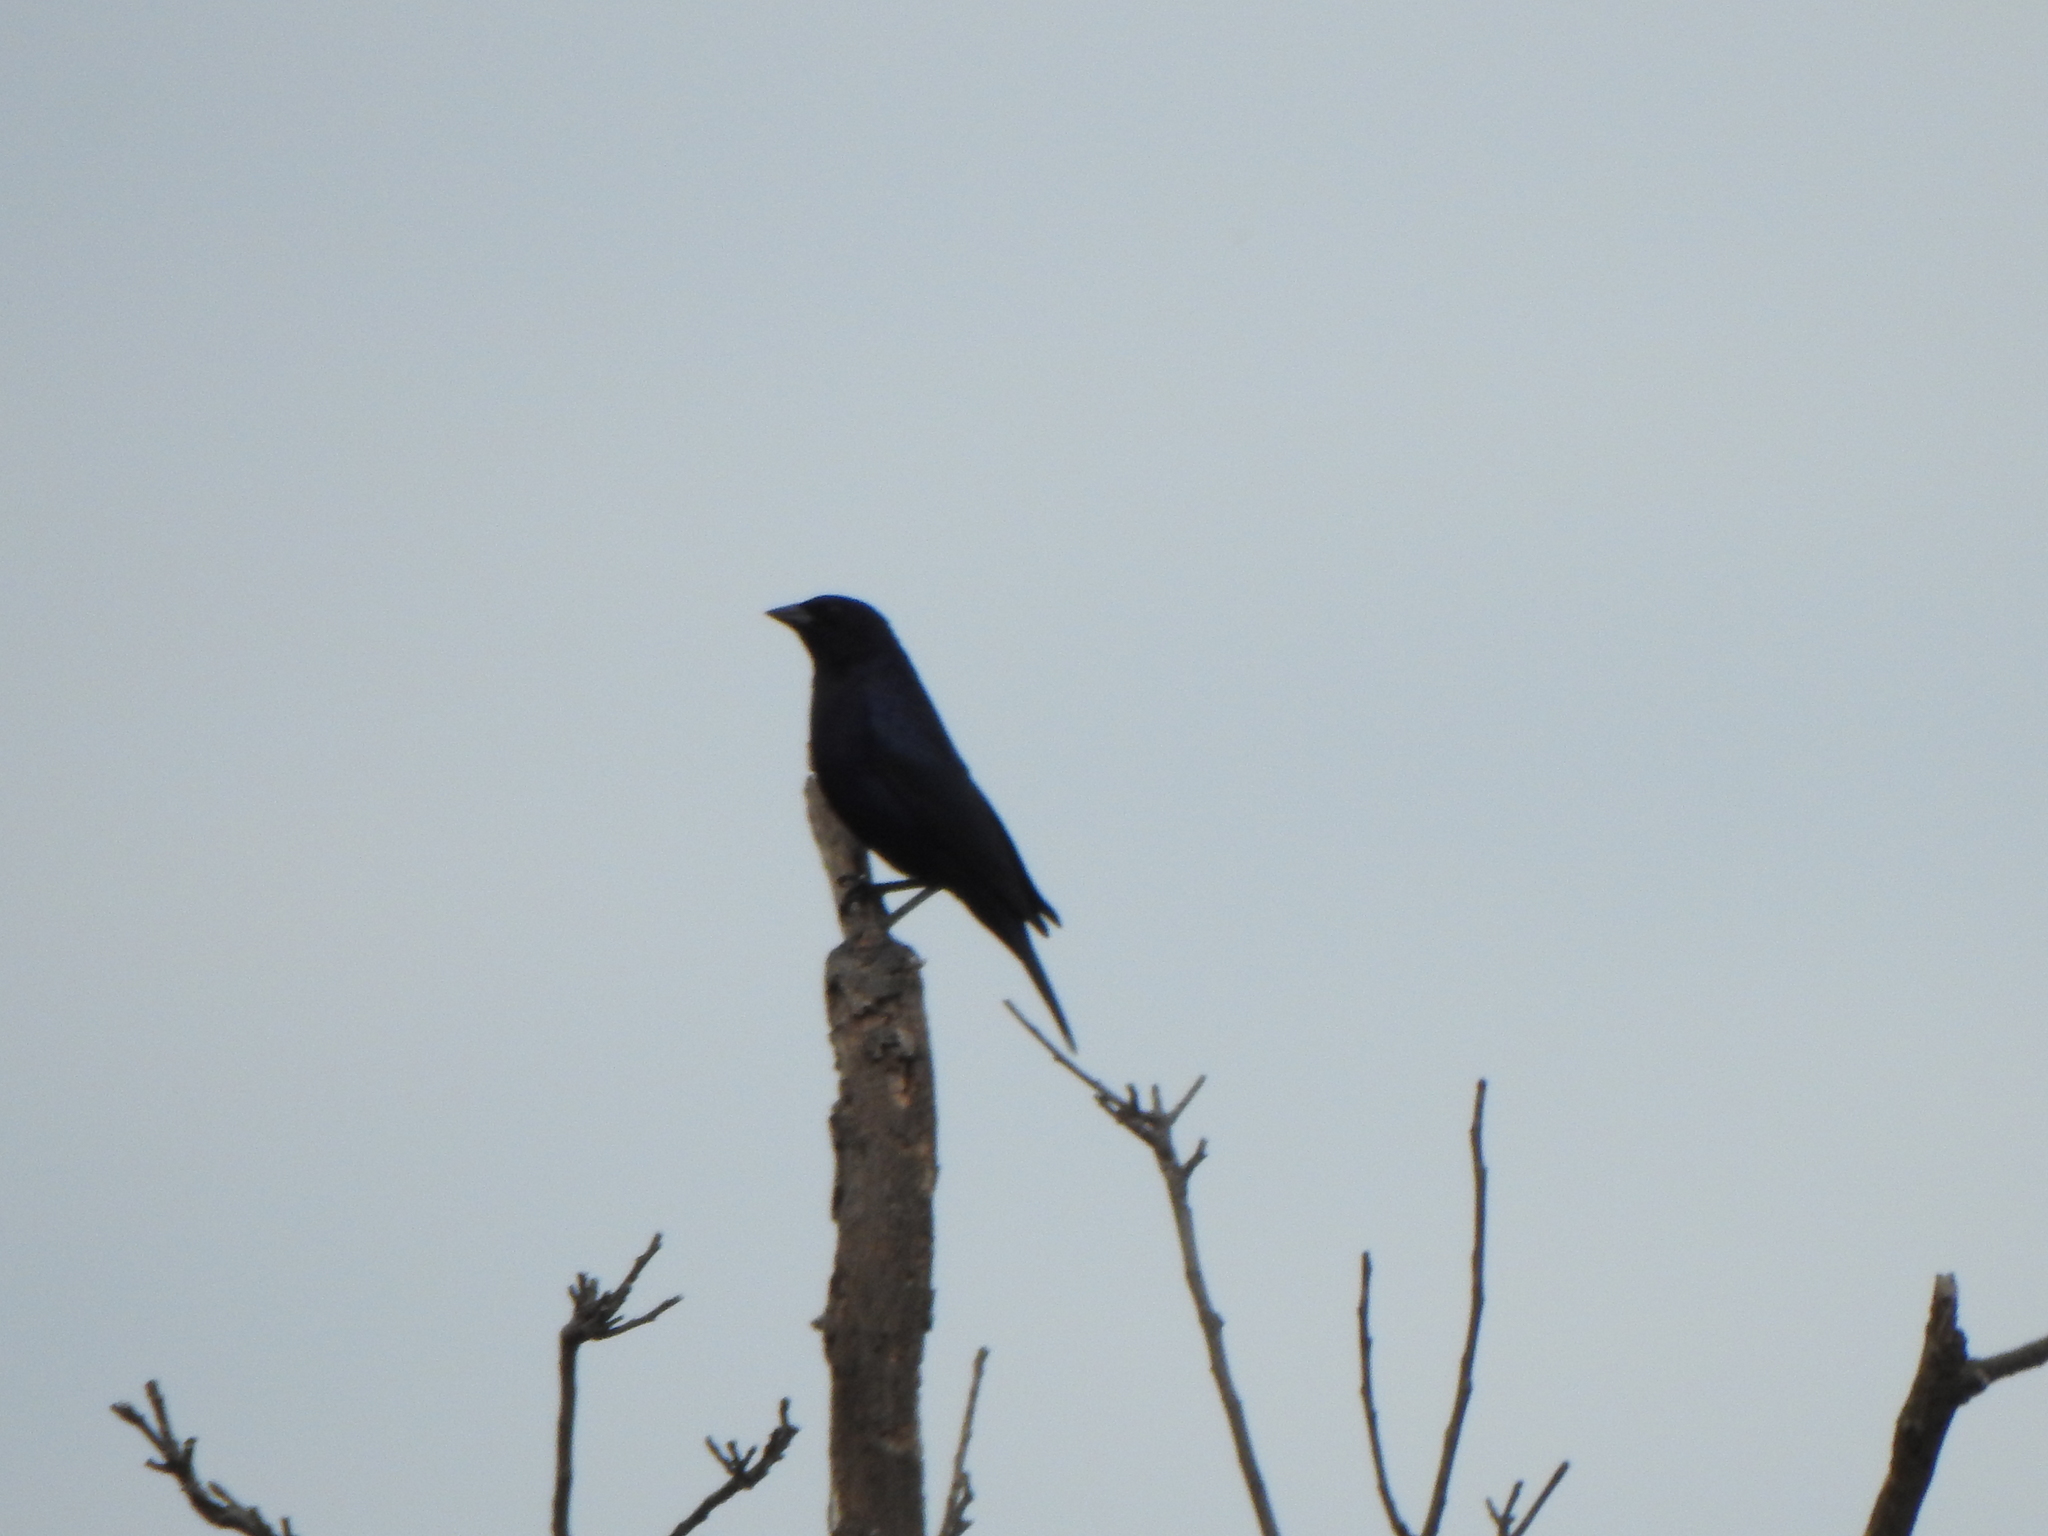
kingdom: Animalia
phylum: Chordata
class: Aves
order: Passeriformes
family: Icteridae
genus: Molothrus
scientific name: Molothrus bonariensis
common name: Shiny cowbird
